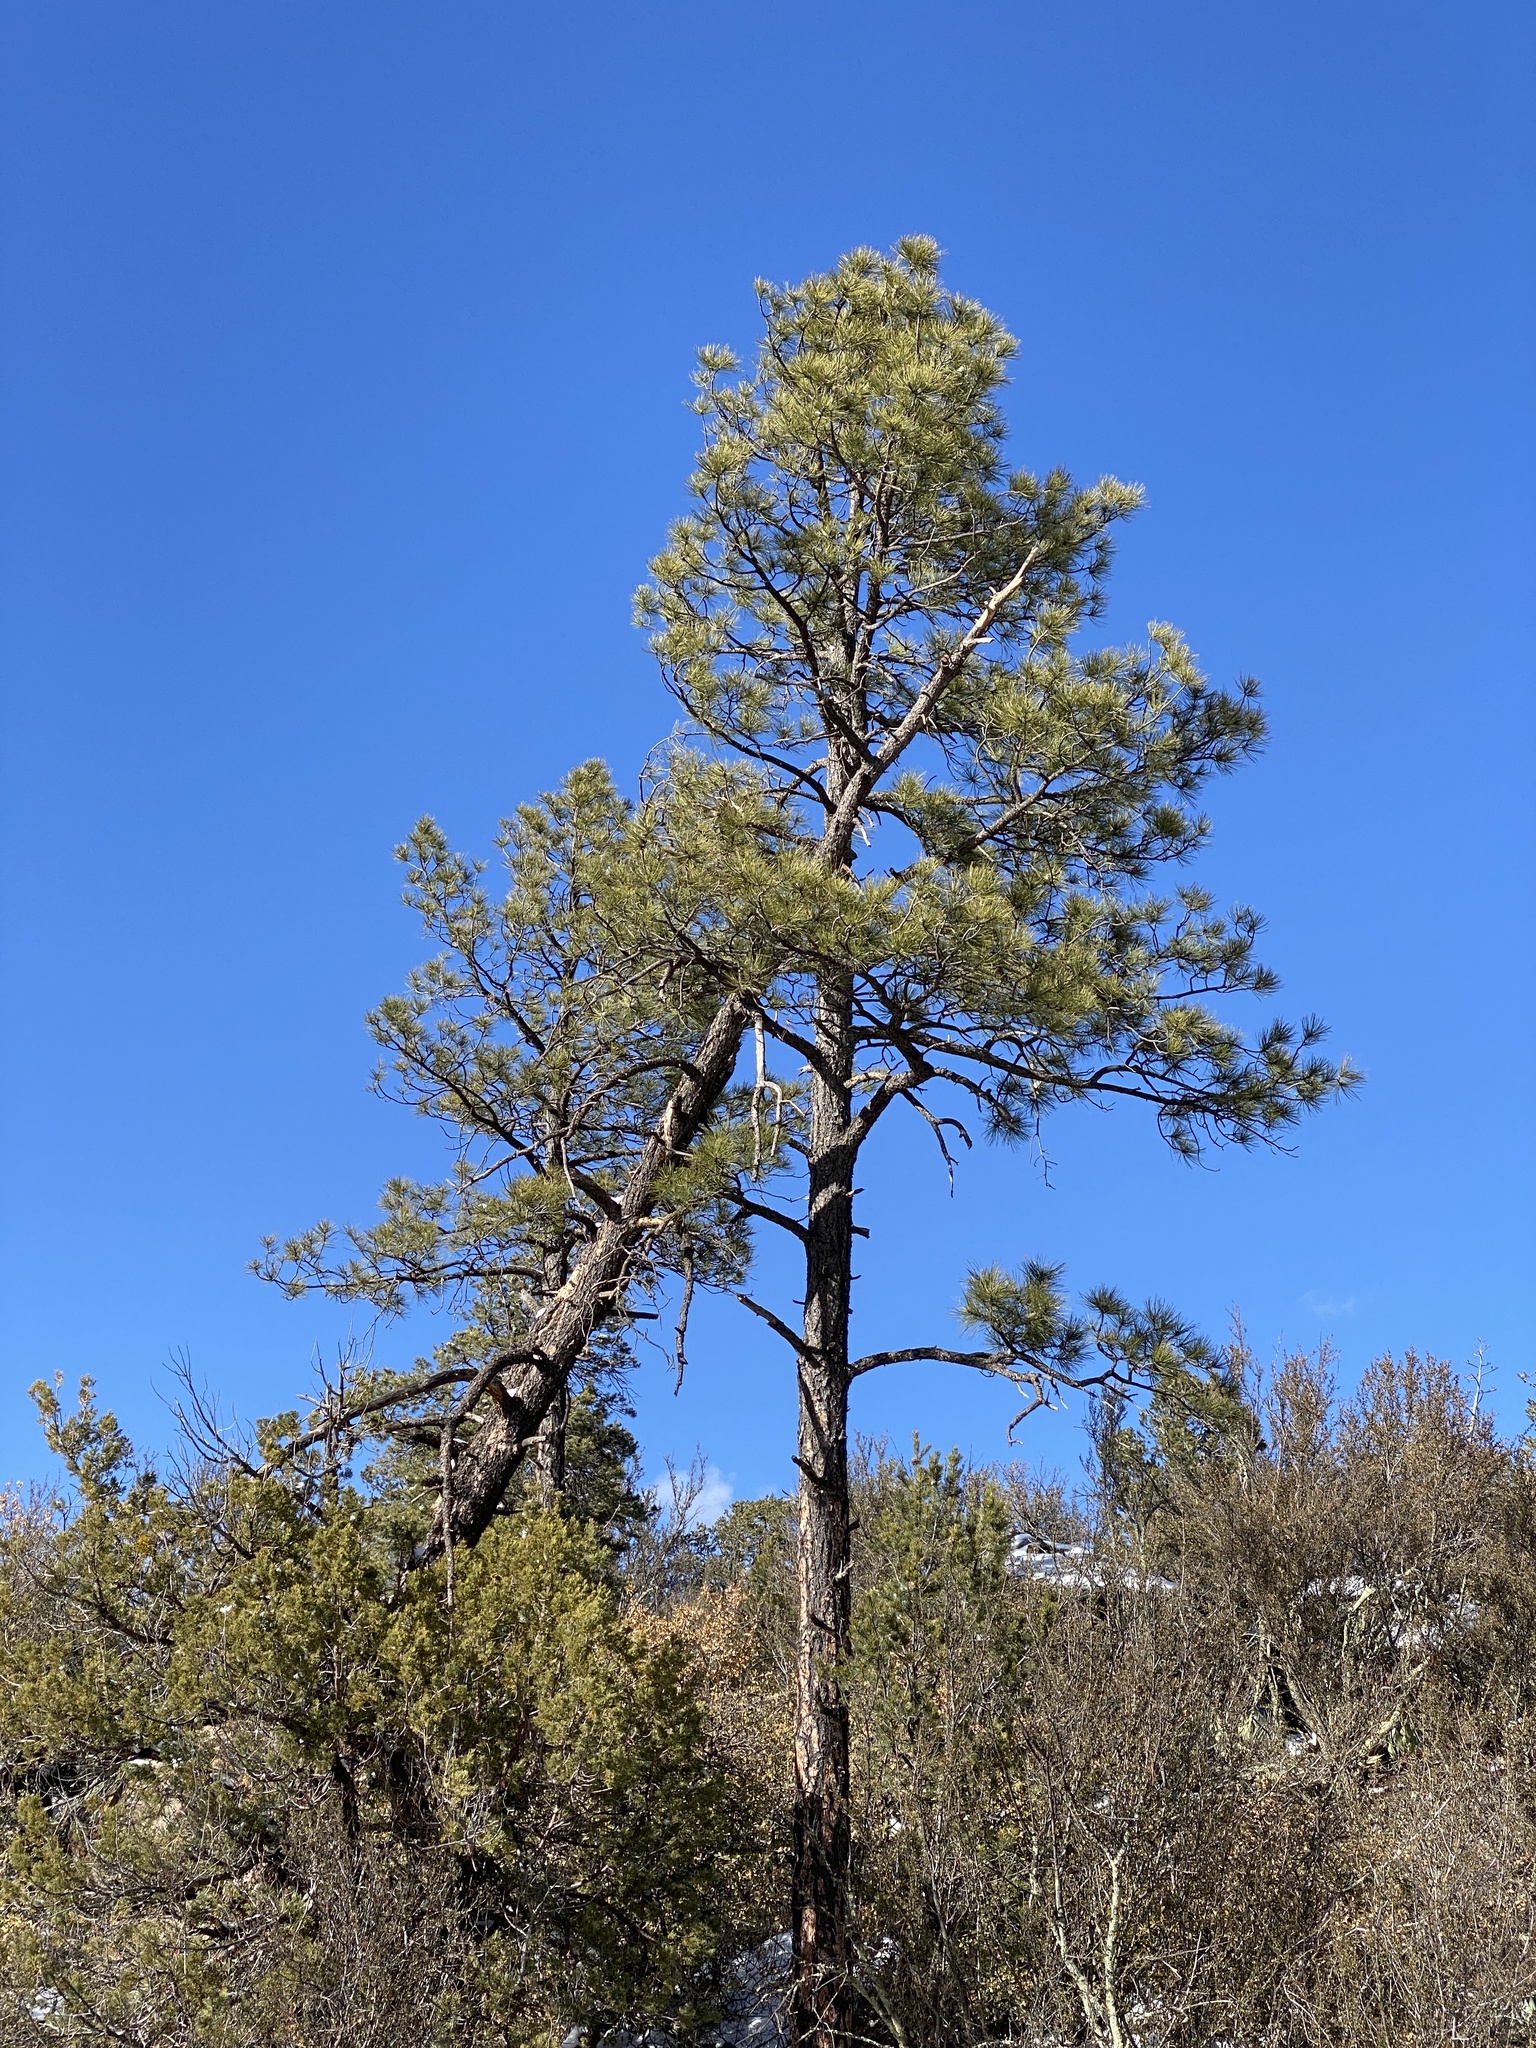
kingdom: Plantae
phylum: Tracheophyta
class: Pinopsida
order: Pinales
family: Pinaceae
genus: Pinus
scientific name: Pinus ponderosa
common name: Western yellow-pine
